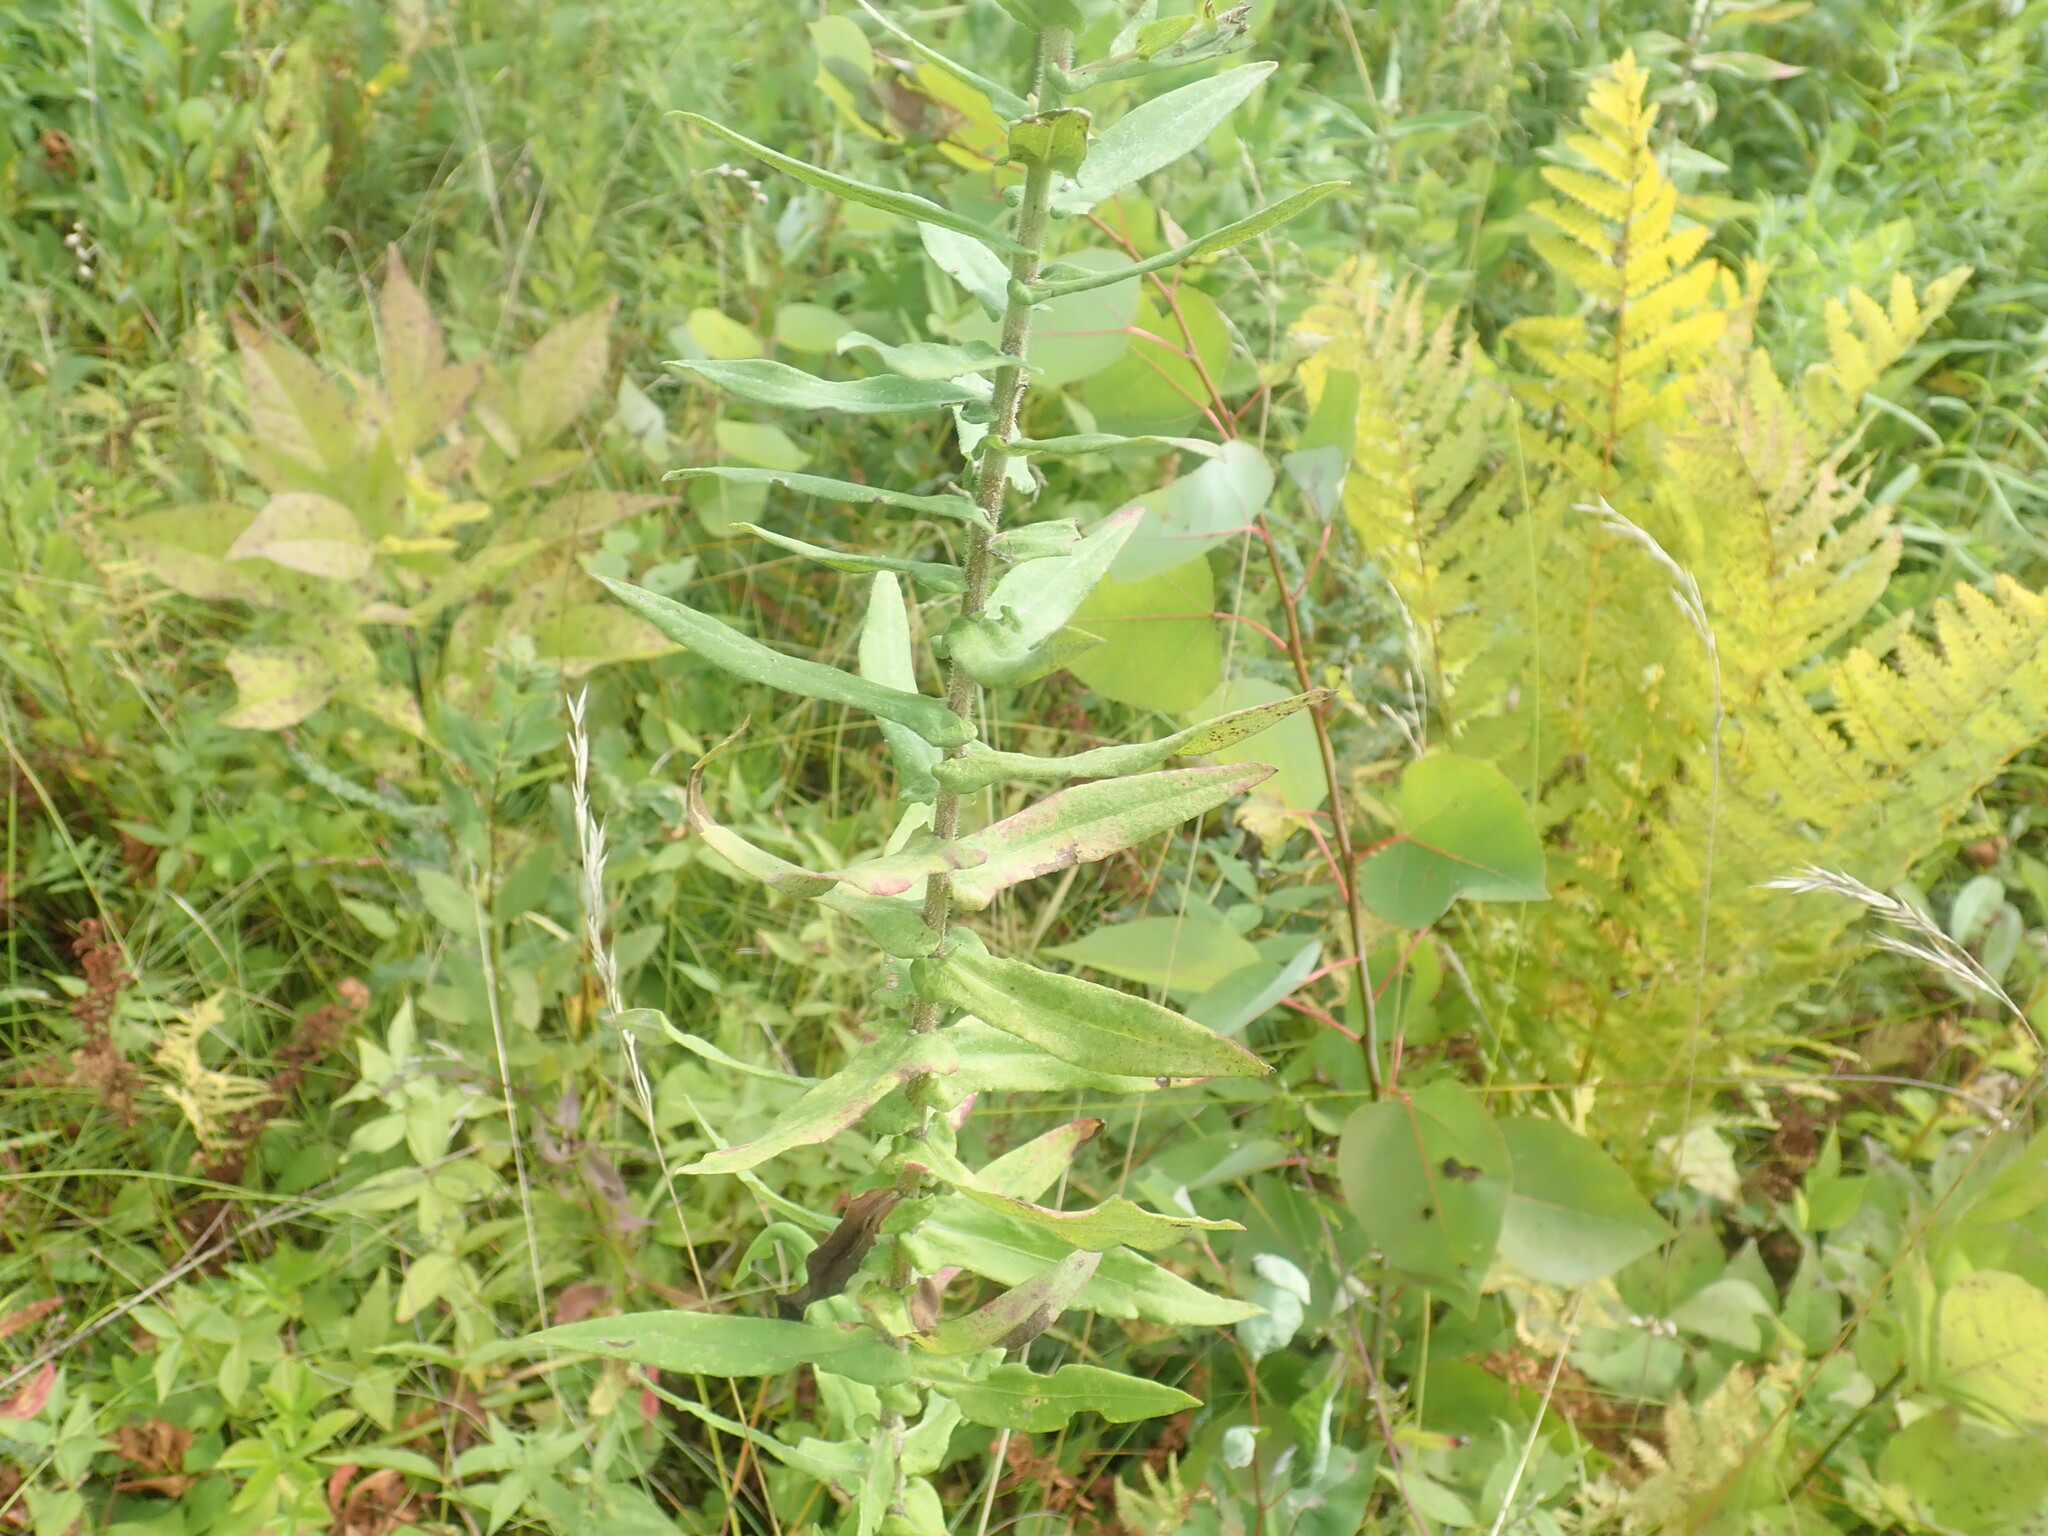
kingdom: Plantae
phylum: Tracheophyta
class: Magnoliopsida
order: Asterales
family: Asteraceae
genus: Symphyotrichum
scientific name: Symphyotrichum novae-angliae
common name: Michaelmas daisy
